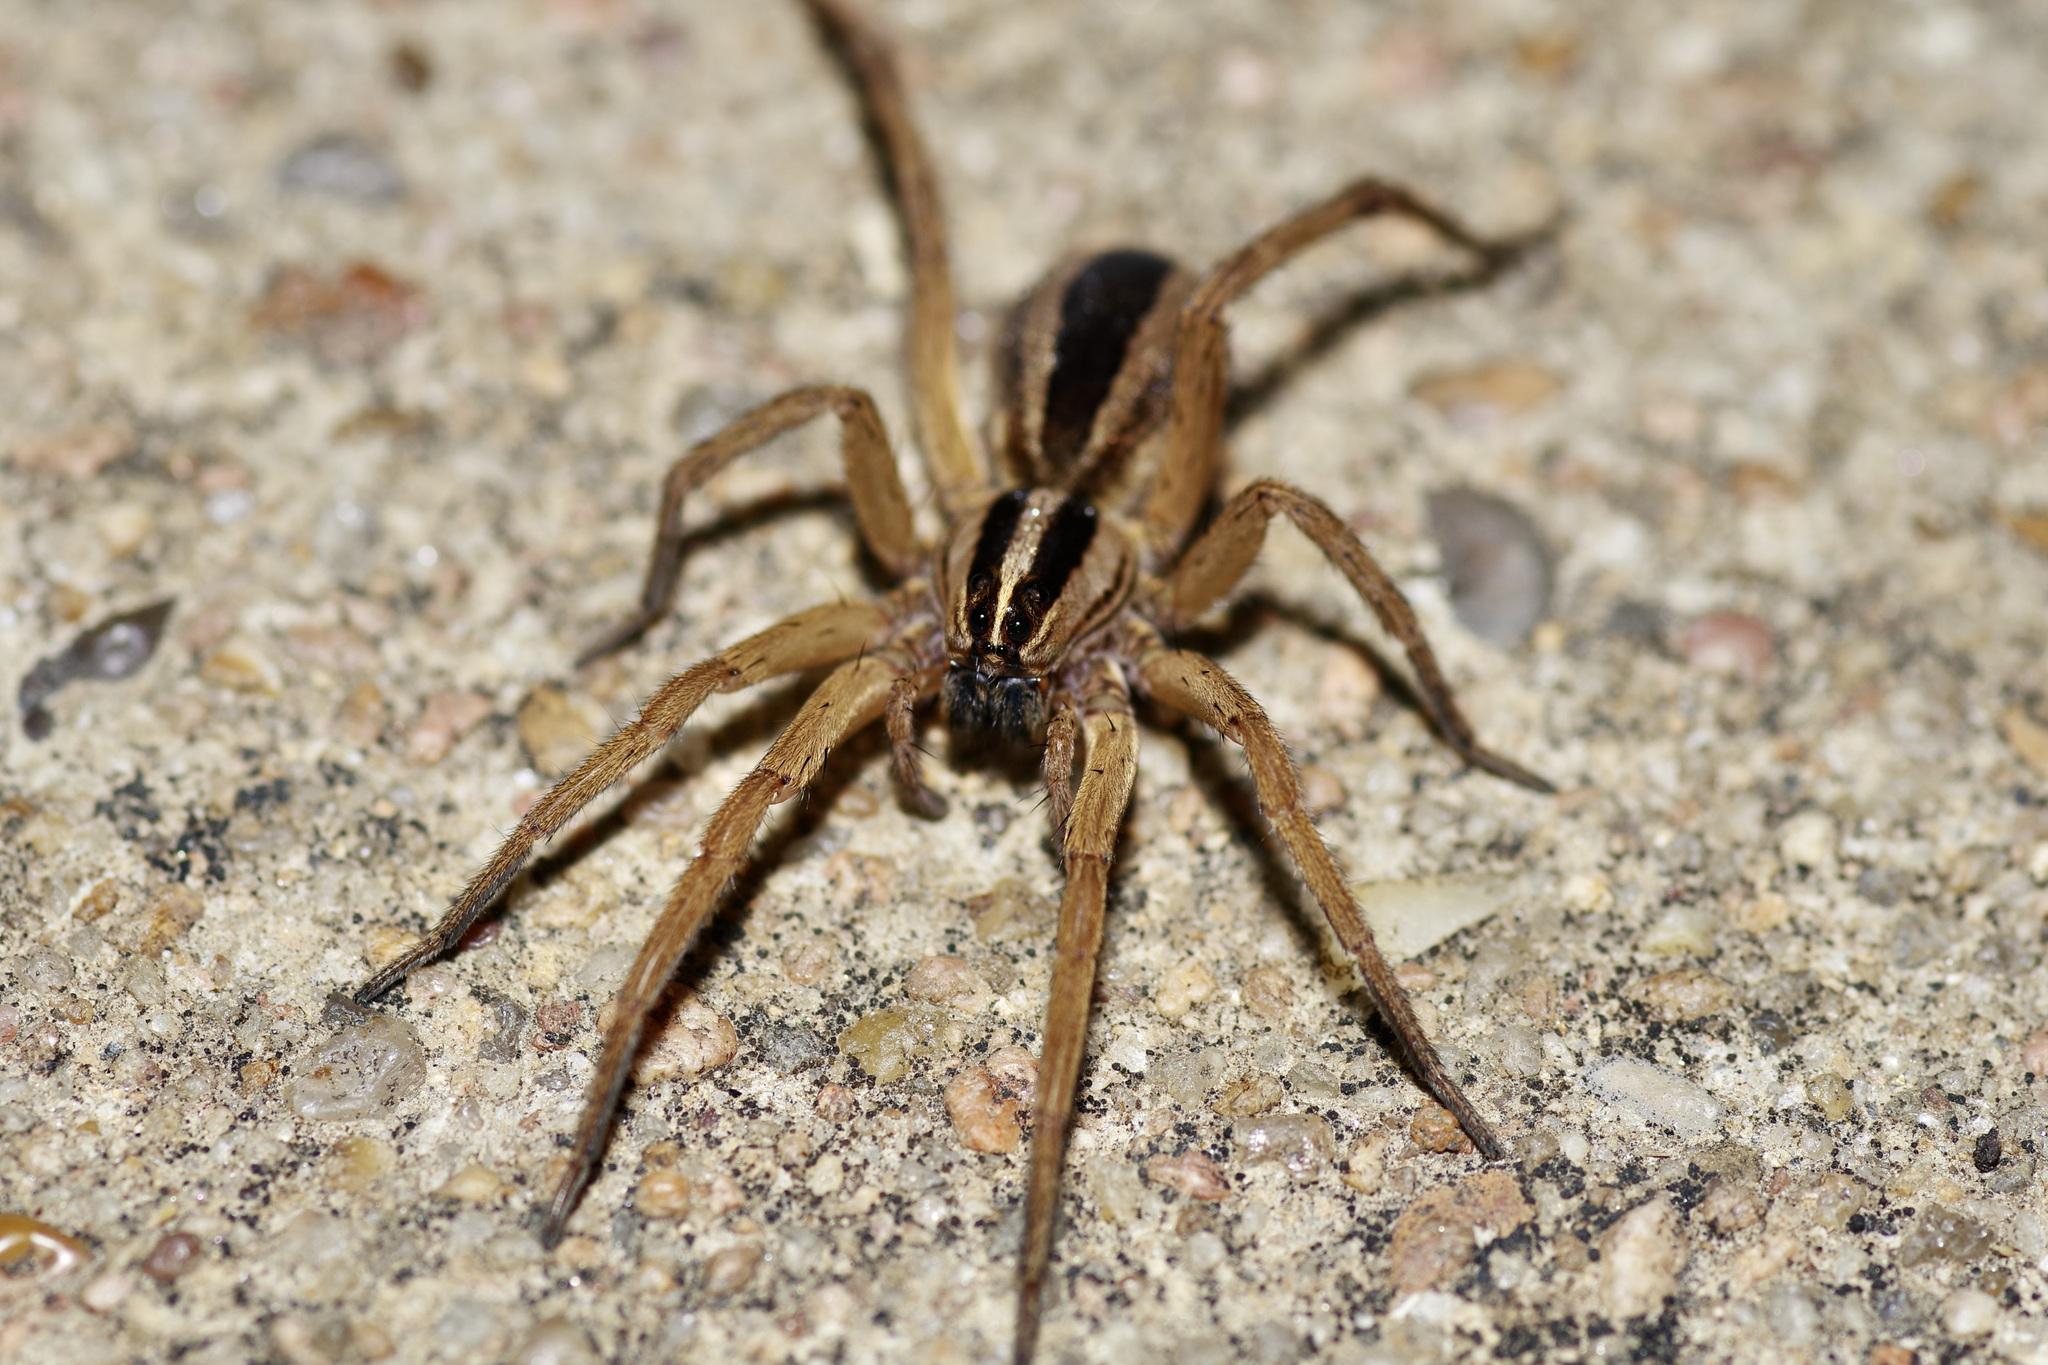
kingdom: Animalia
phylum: Arthropoda
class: Arachnida
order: Araneae
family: Lycosidae
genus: Rabidosa
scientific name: Rabidosa punctulata
